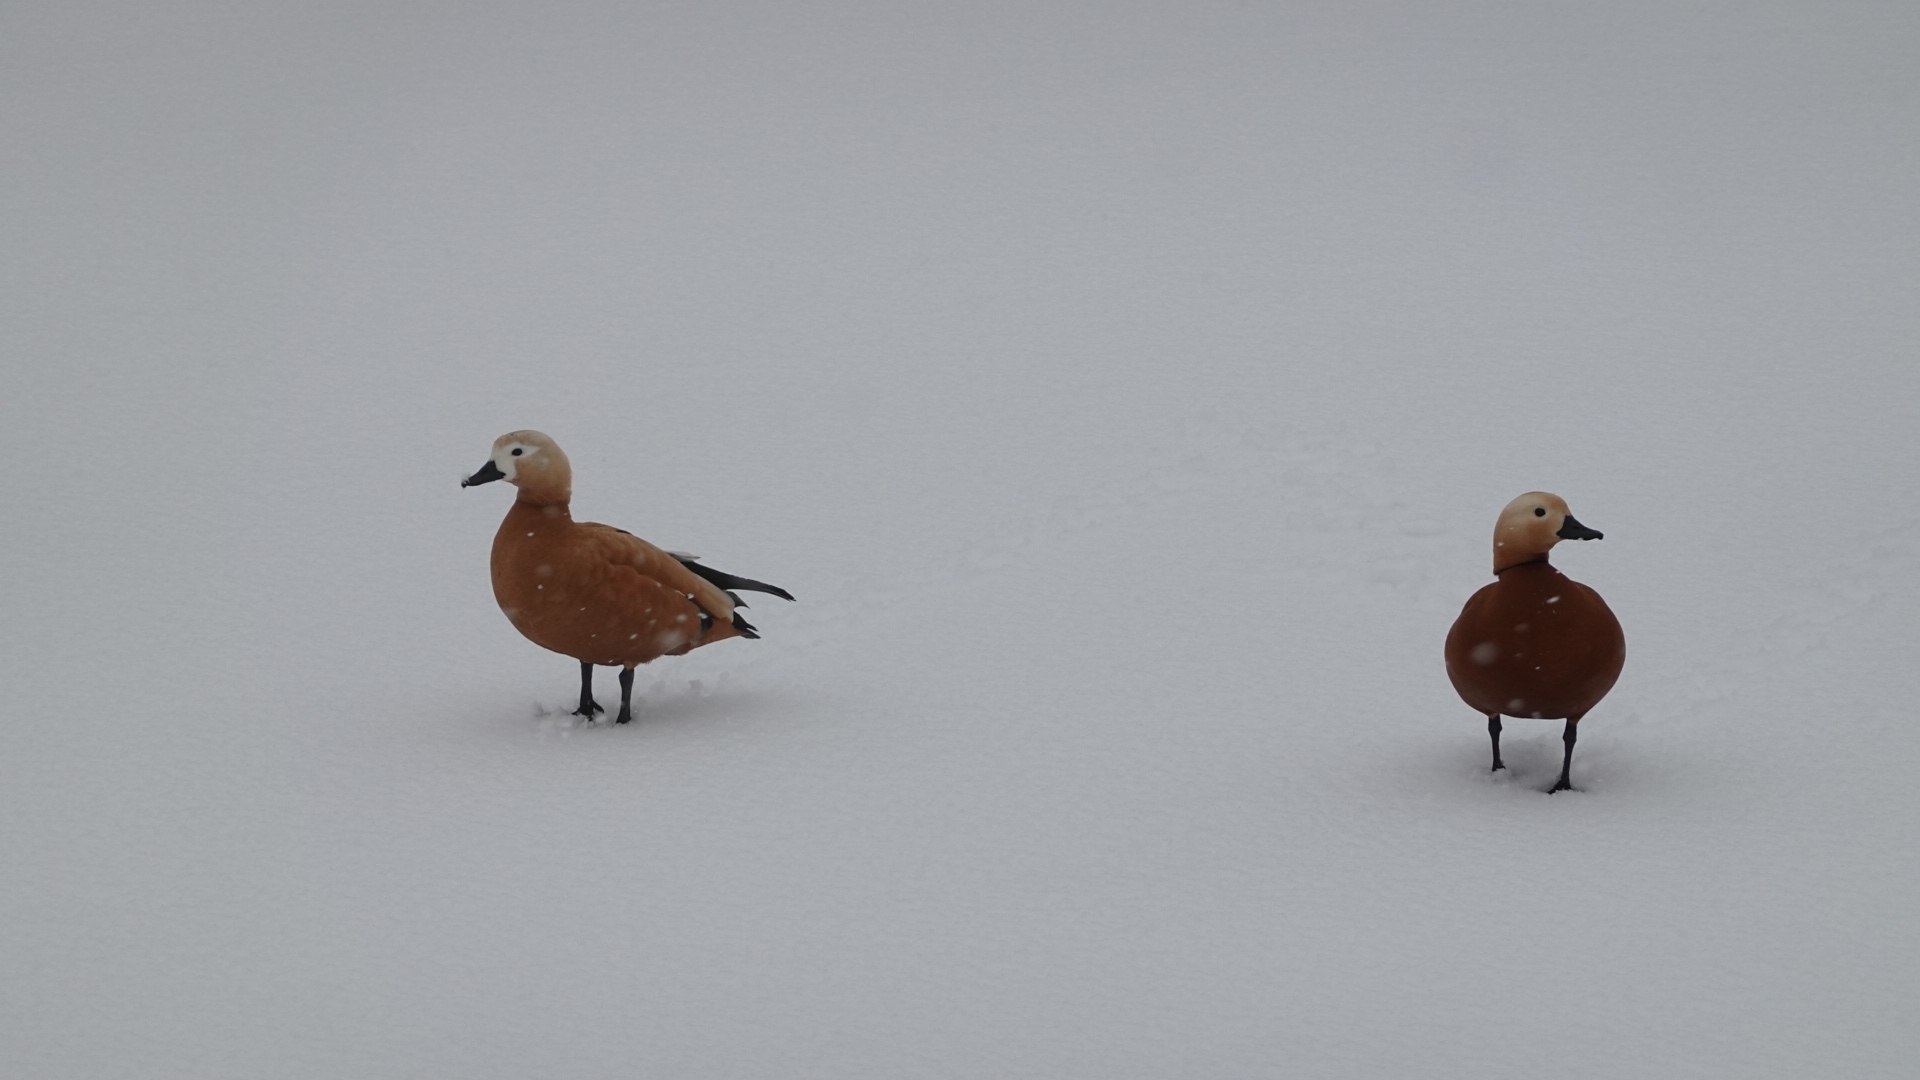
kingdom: Animalia
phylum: Chordata
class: Aves
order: Anseriformes
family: Anatidae
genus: Tadorna
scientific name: Tadorna ferruginea
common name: Ruddy shelduck
